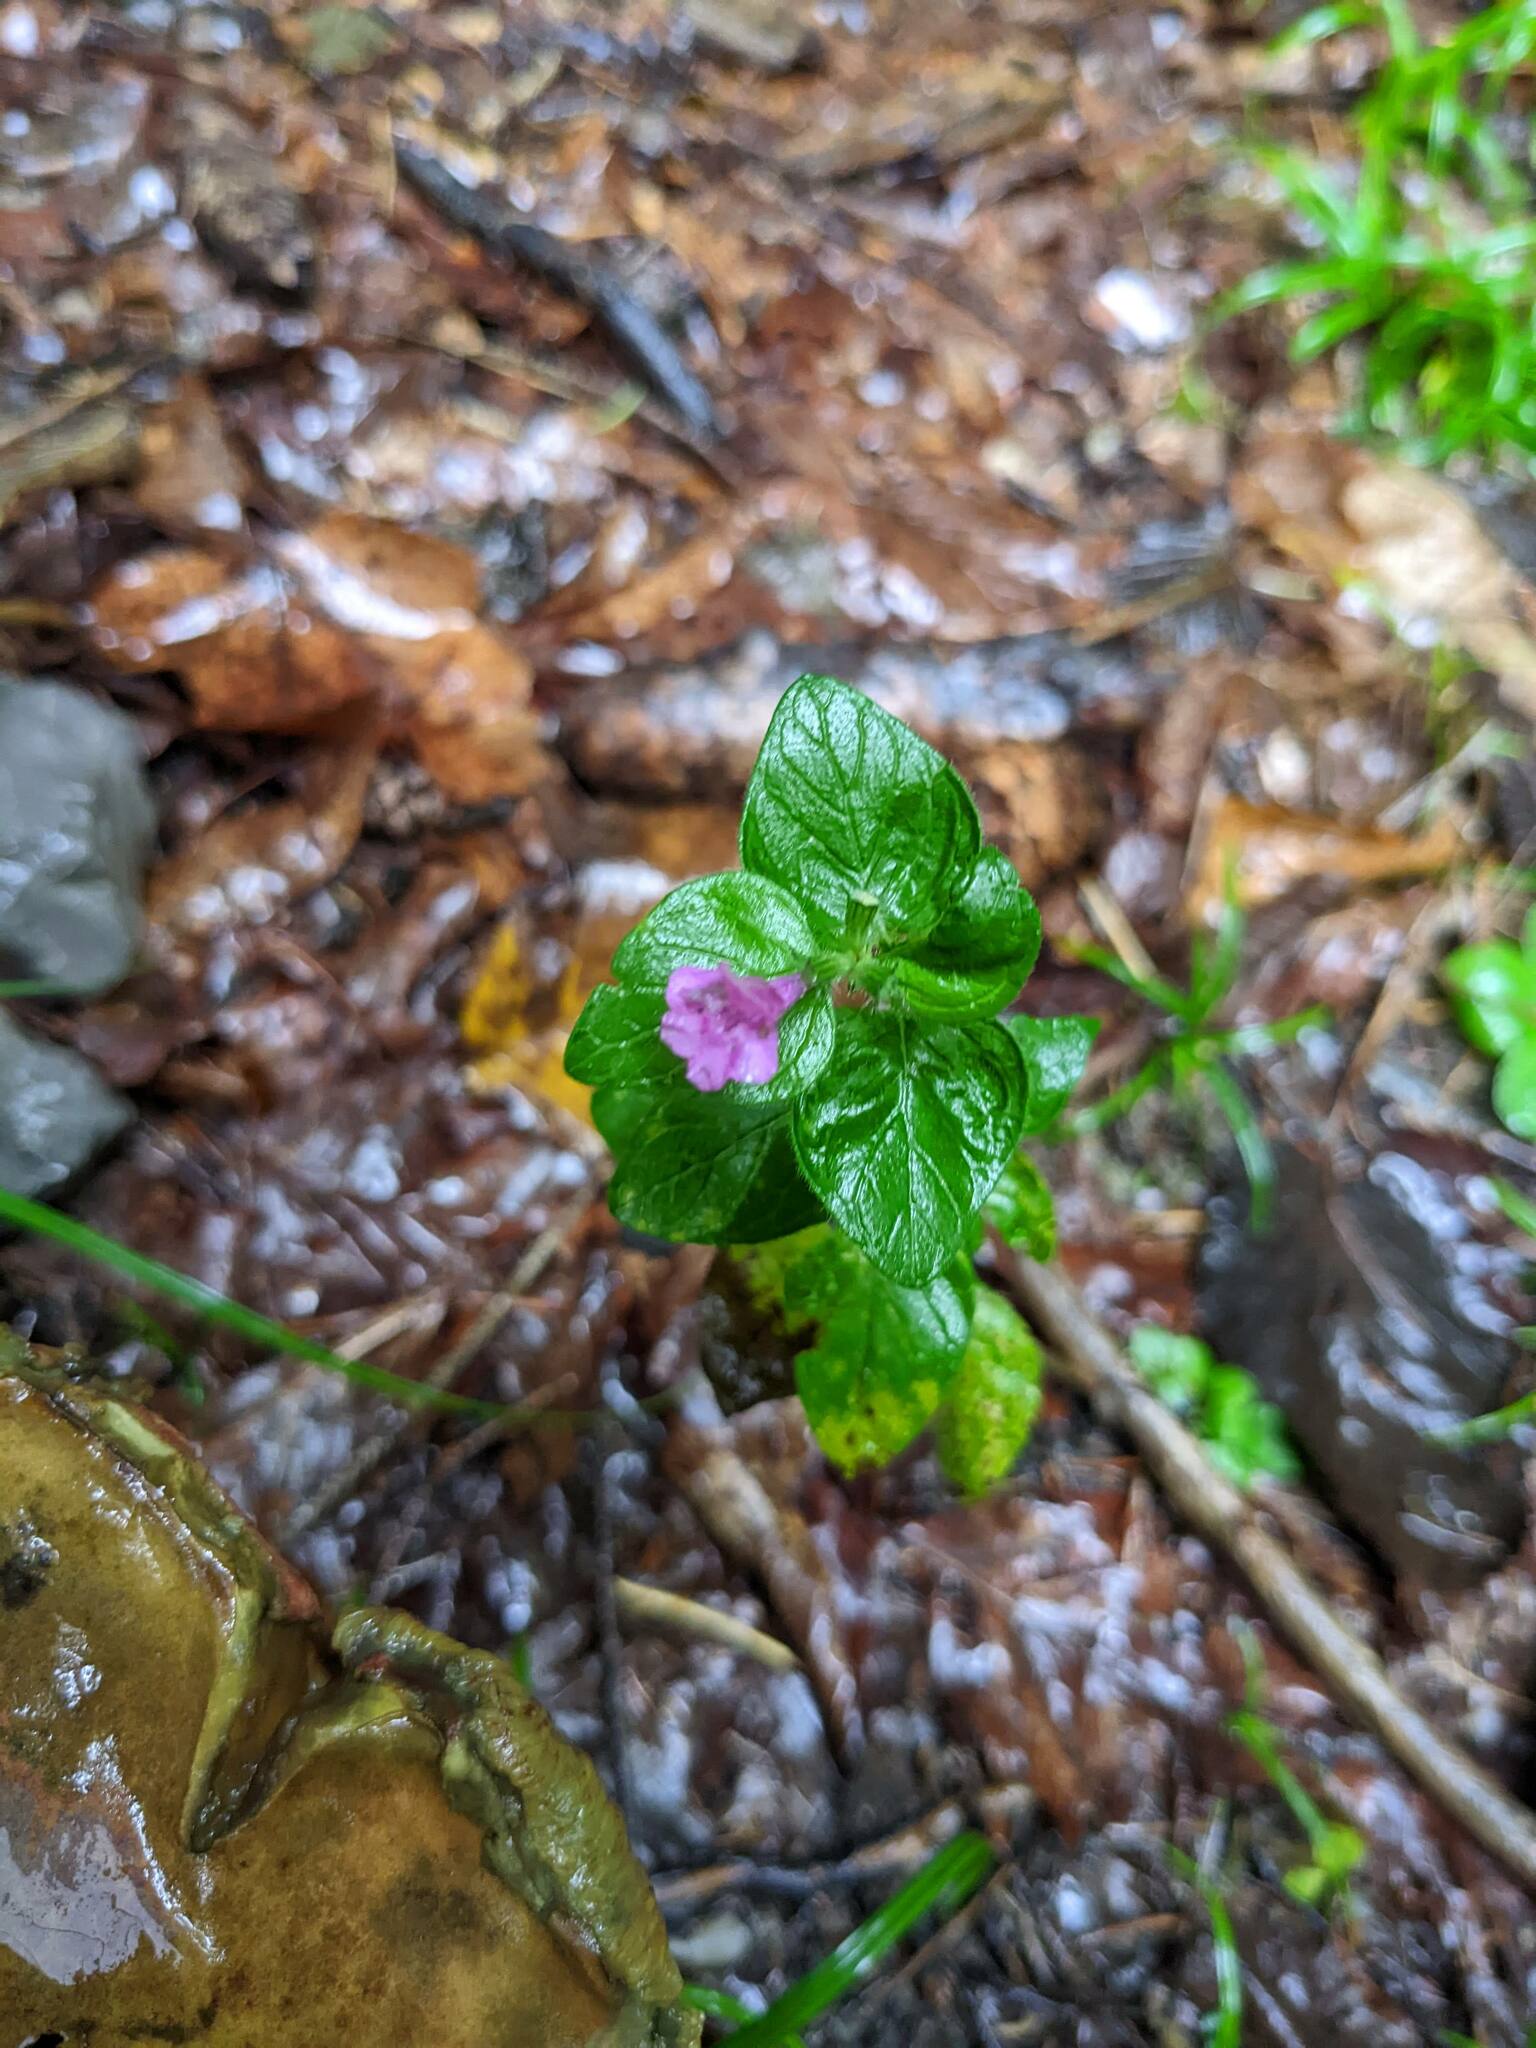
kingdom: Plantae
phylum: Tracheophyta
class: Magnoliopsida
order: Lamiales
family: Lamiaceae
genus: Clinopodium
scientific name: Clinopodium vulgare
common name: Wild basil
